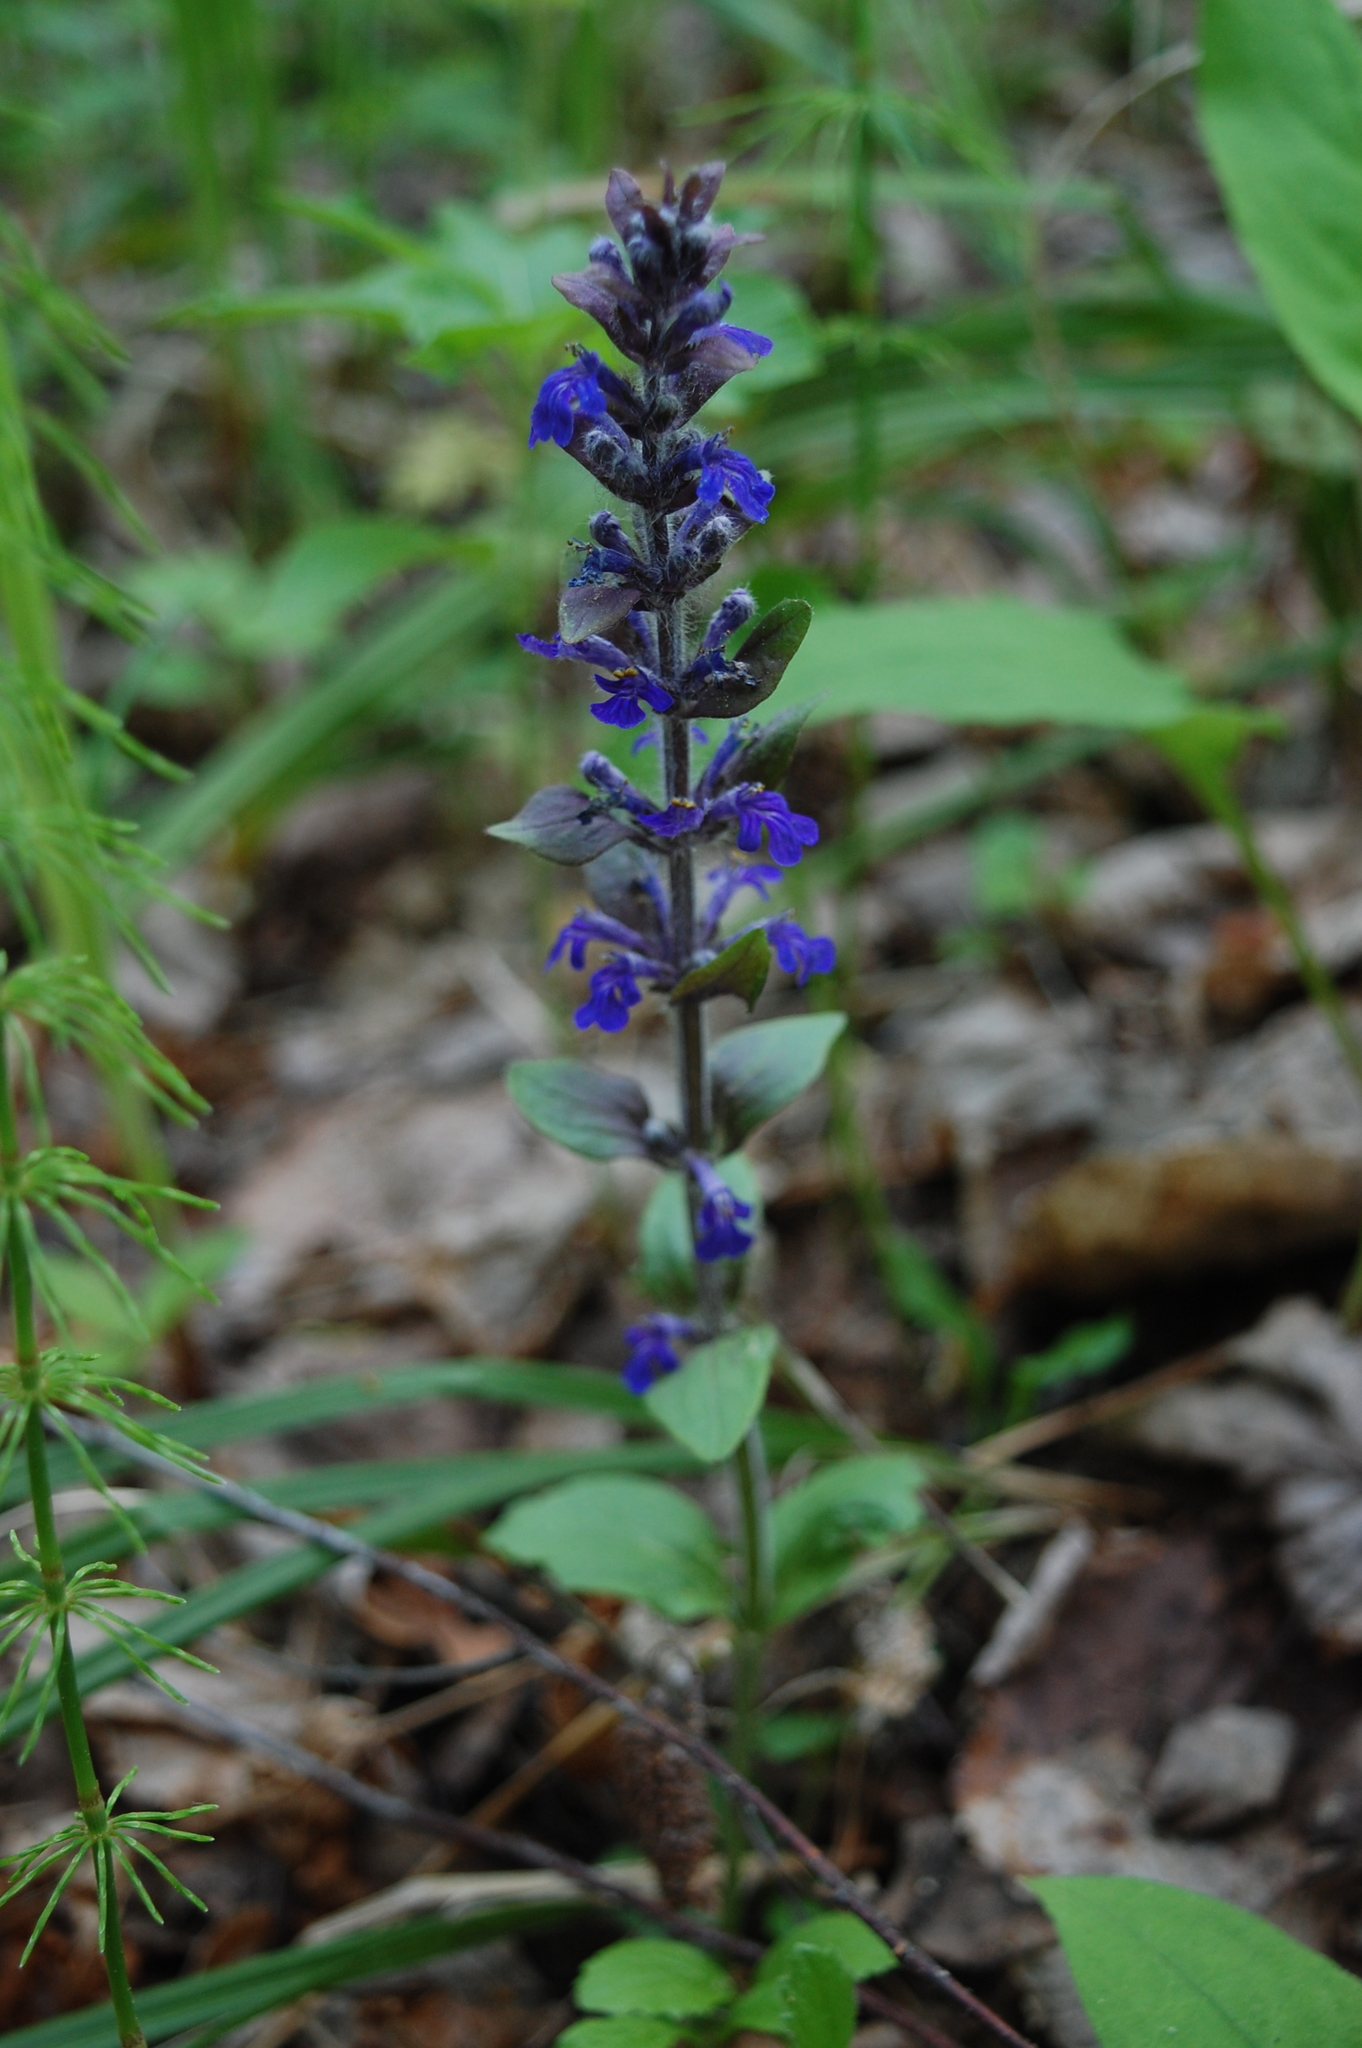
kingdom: Plantae
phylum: Tracheophyta
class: Magnoliopsida
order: Lamiales
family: Lamiaceae
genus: Ajuga
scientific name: Ajuga reptans
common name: Bugle
